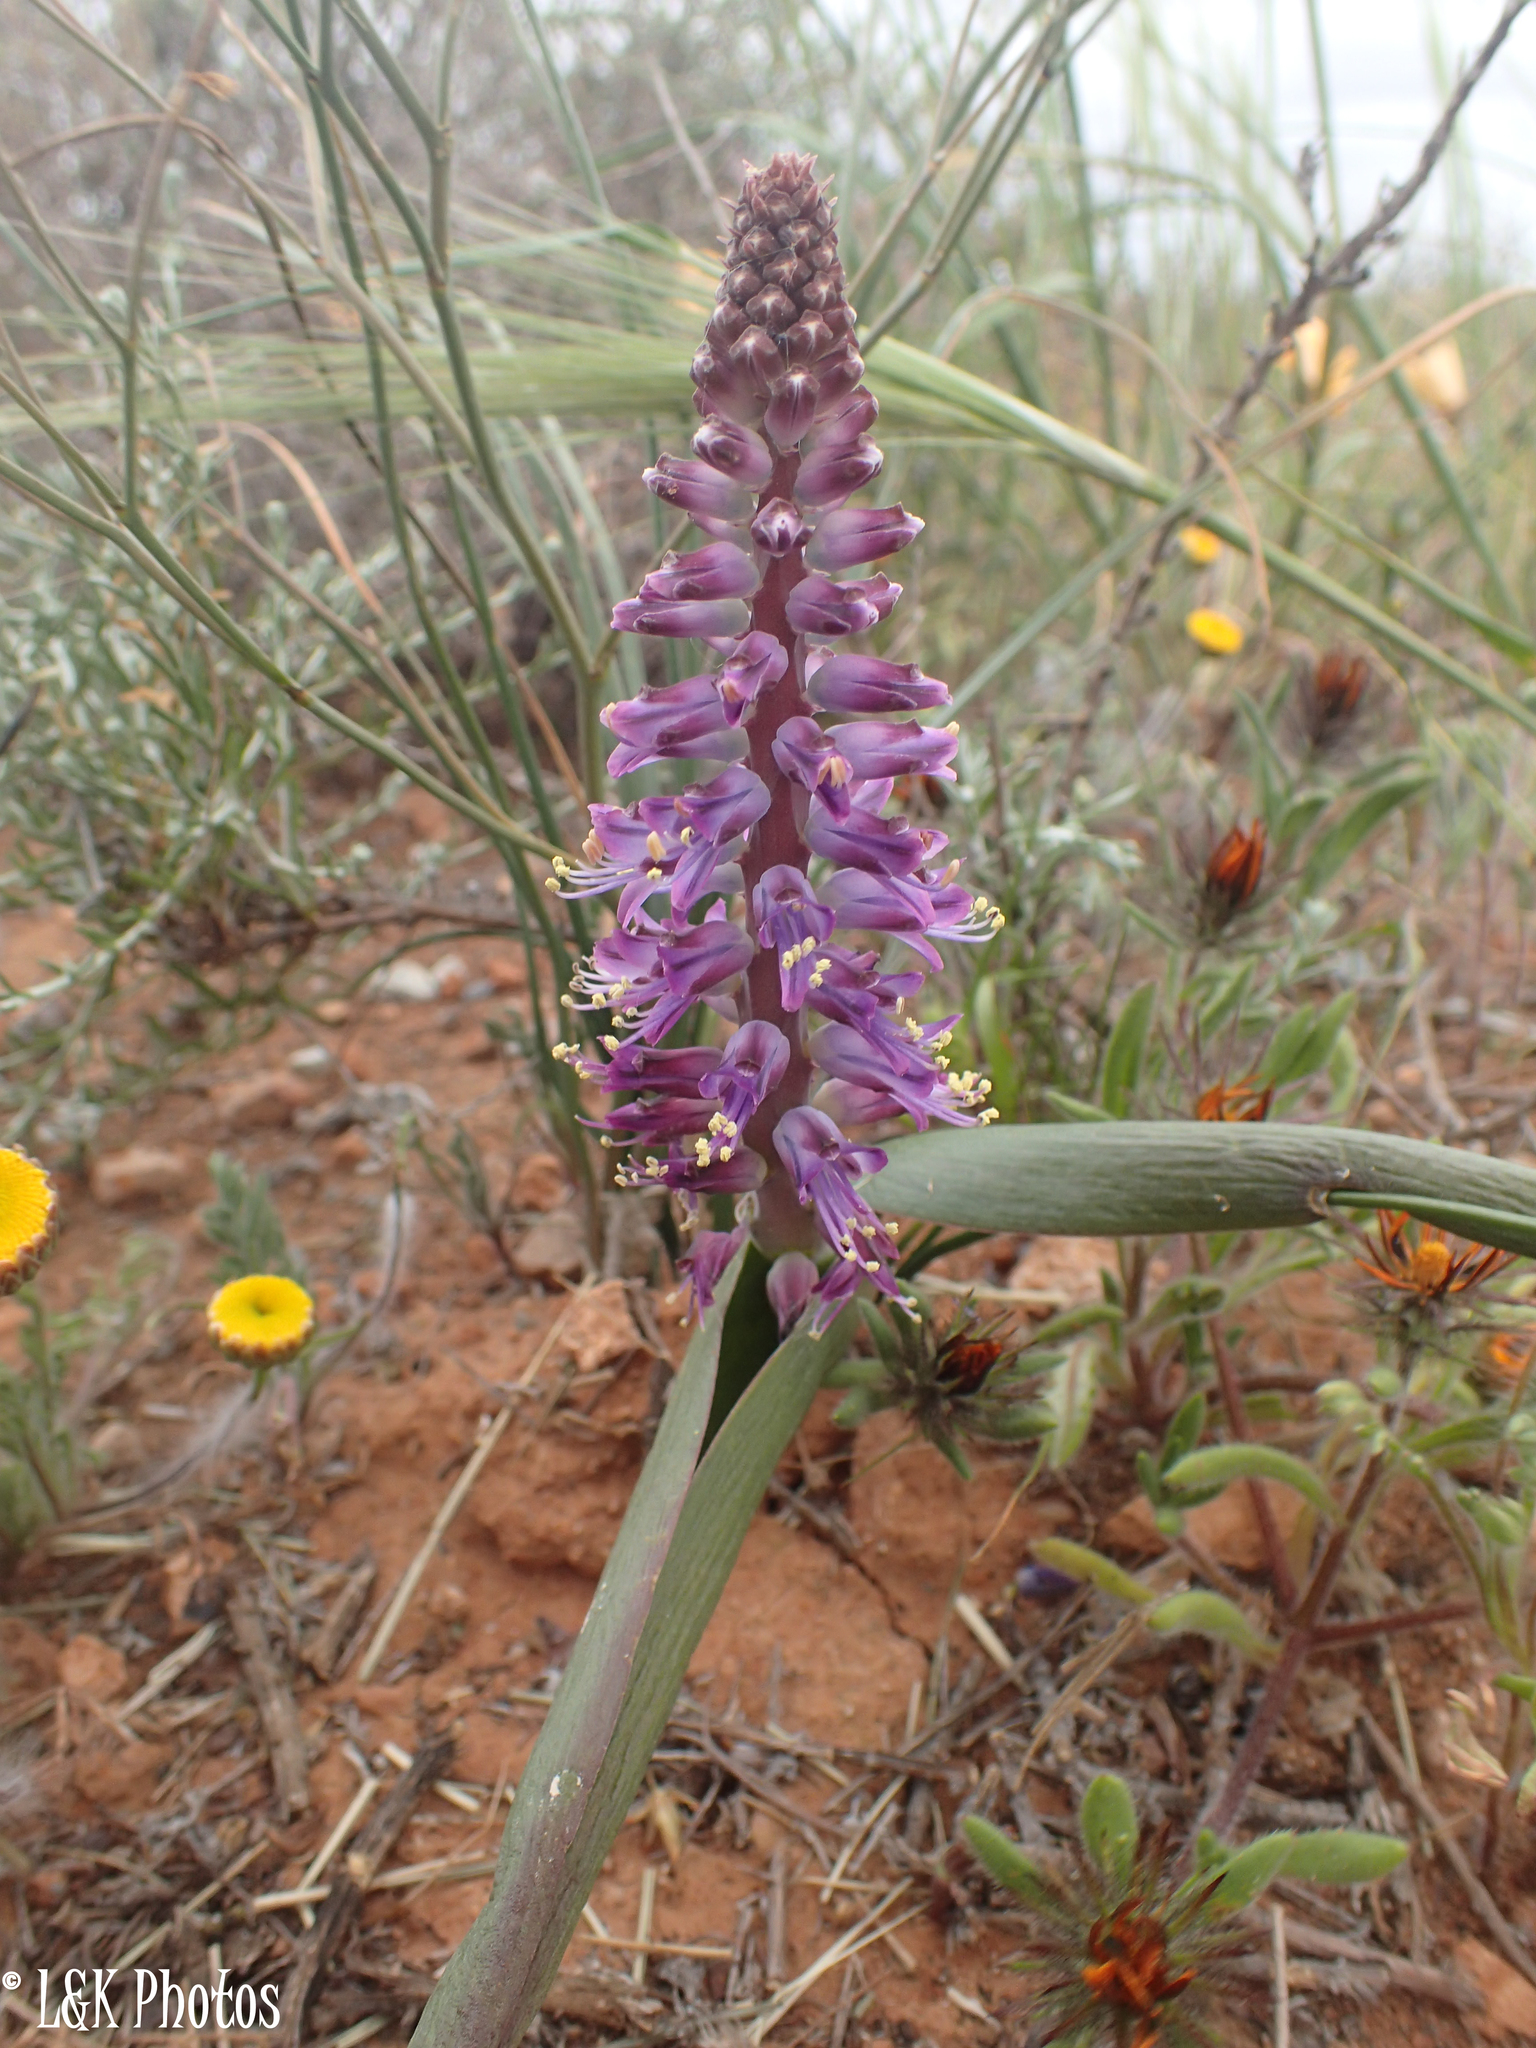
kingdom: Plantae
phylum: Tracheophyta
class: Liliopsida
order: Asparagales
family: Asparagaceae
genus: Lachenalia
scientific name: Lachenalia splendida
